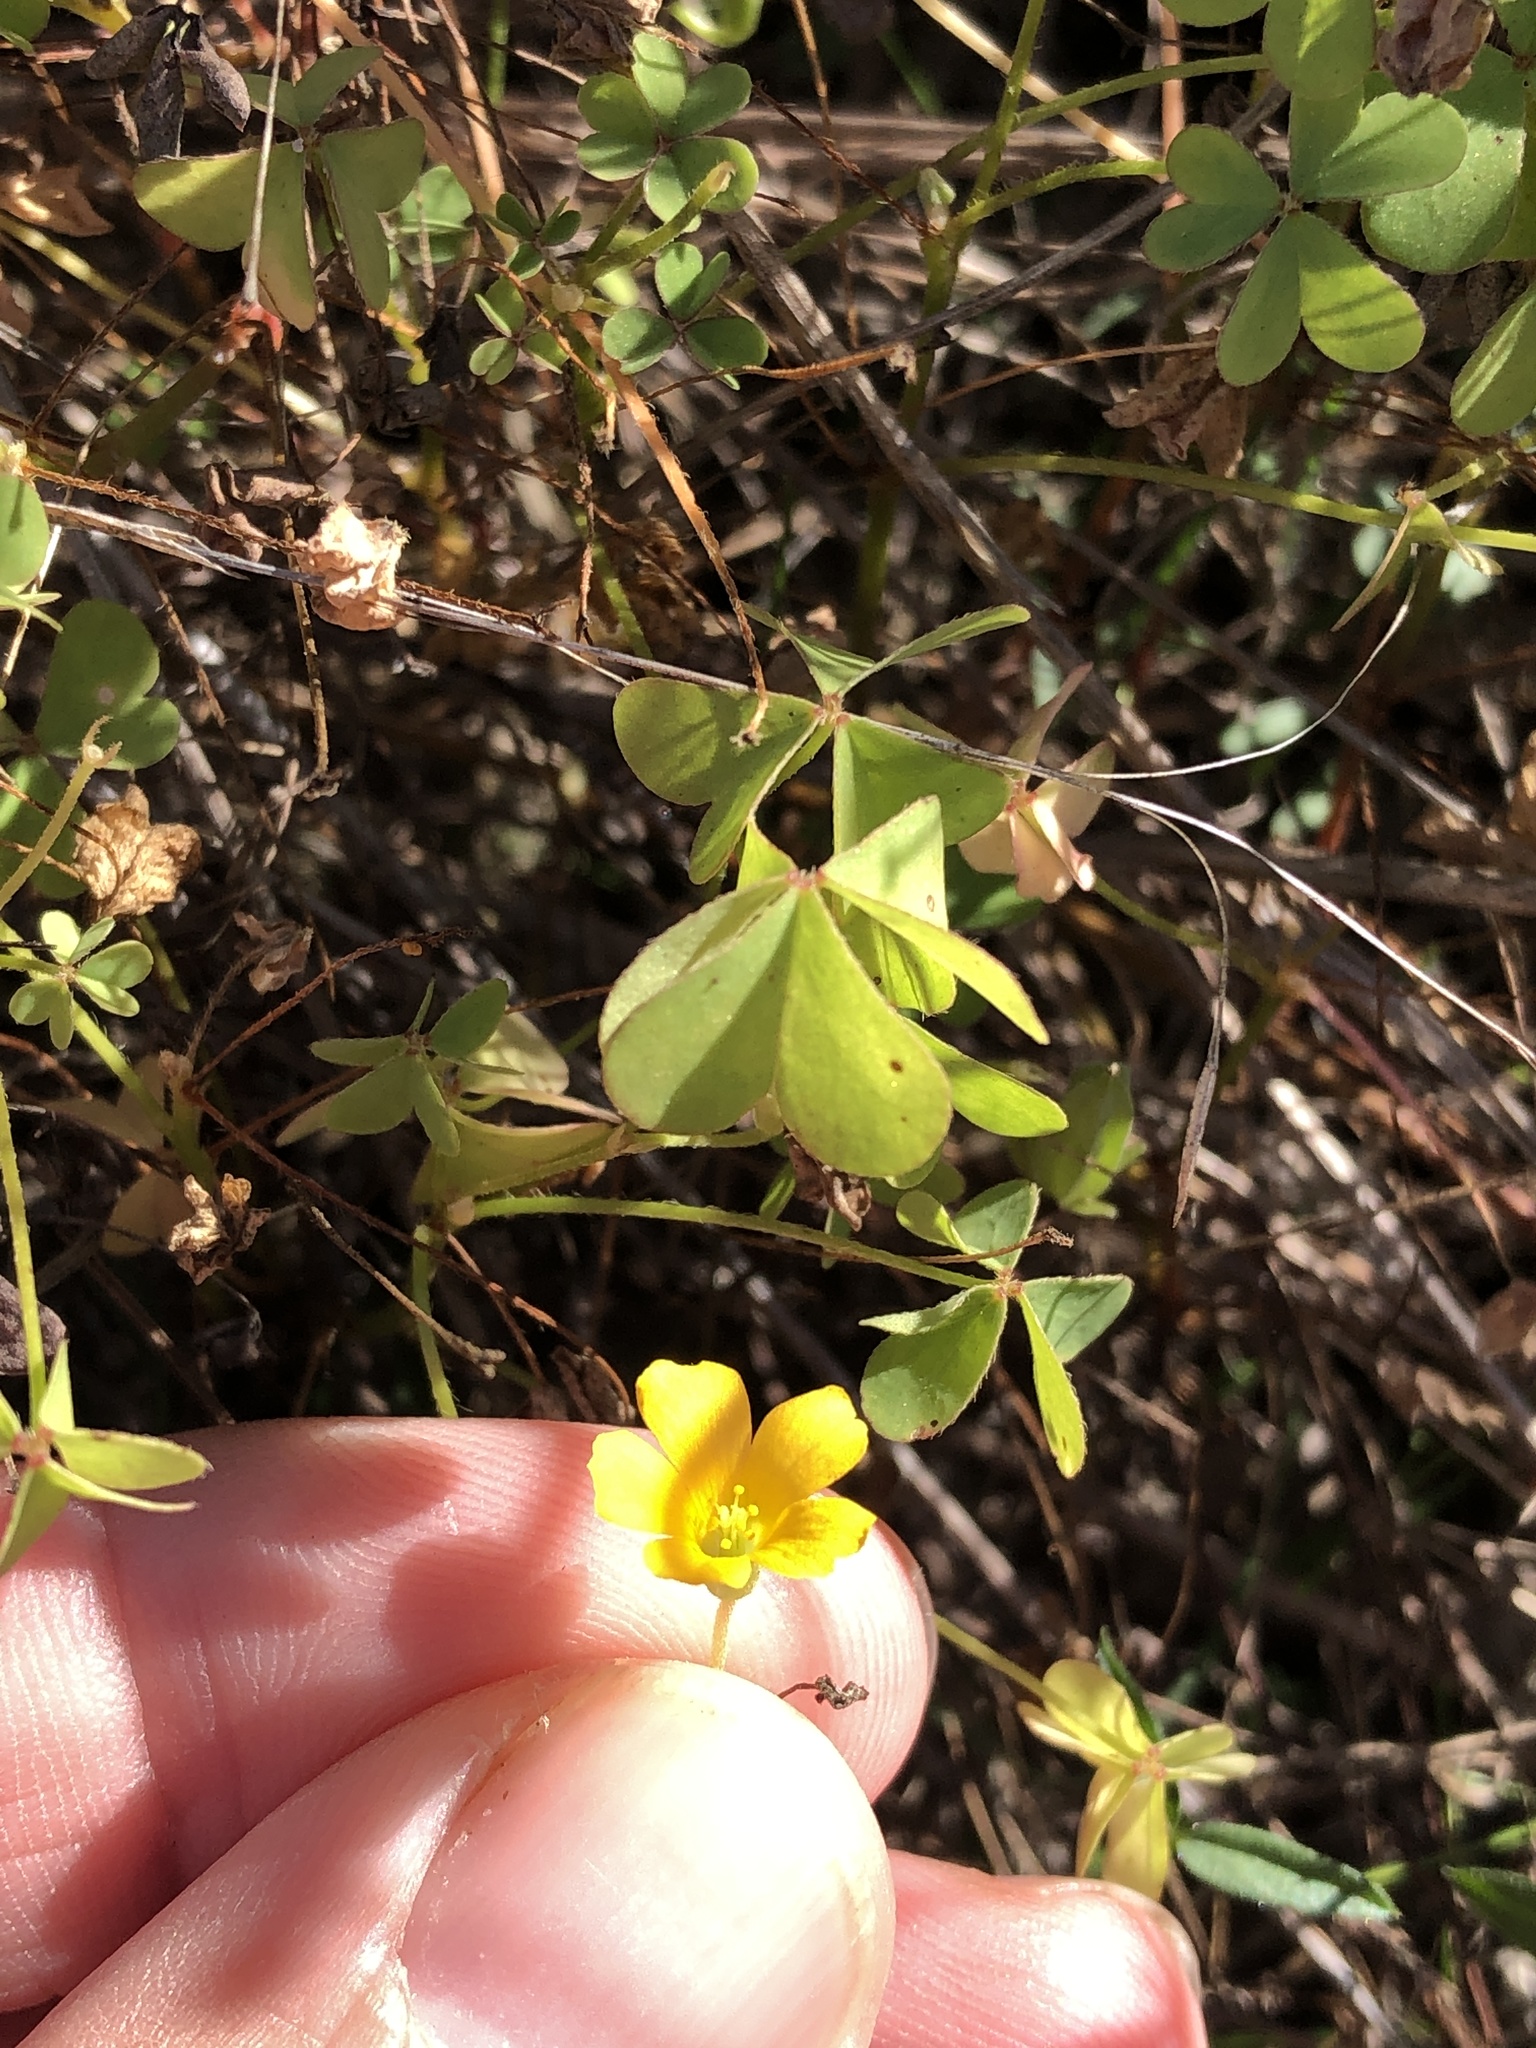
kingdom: Plantae
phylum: Tracheophyta
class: Magnoliopsida
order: Oxalidales
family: Oxalidaceae
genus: Oxalis
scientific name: Oxalis dillenii
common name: Sussex yellow-sorrel
